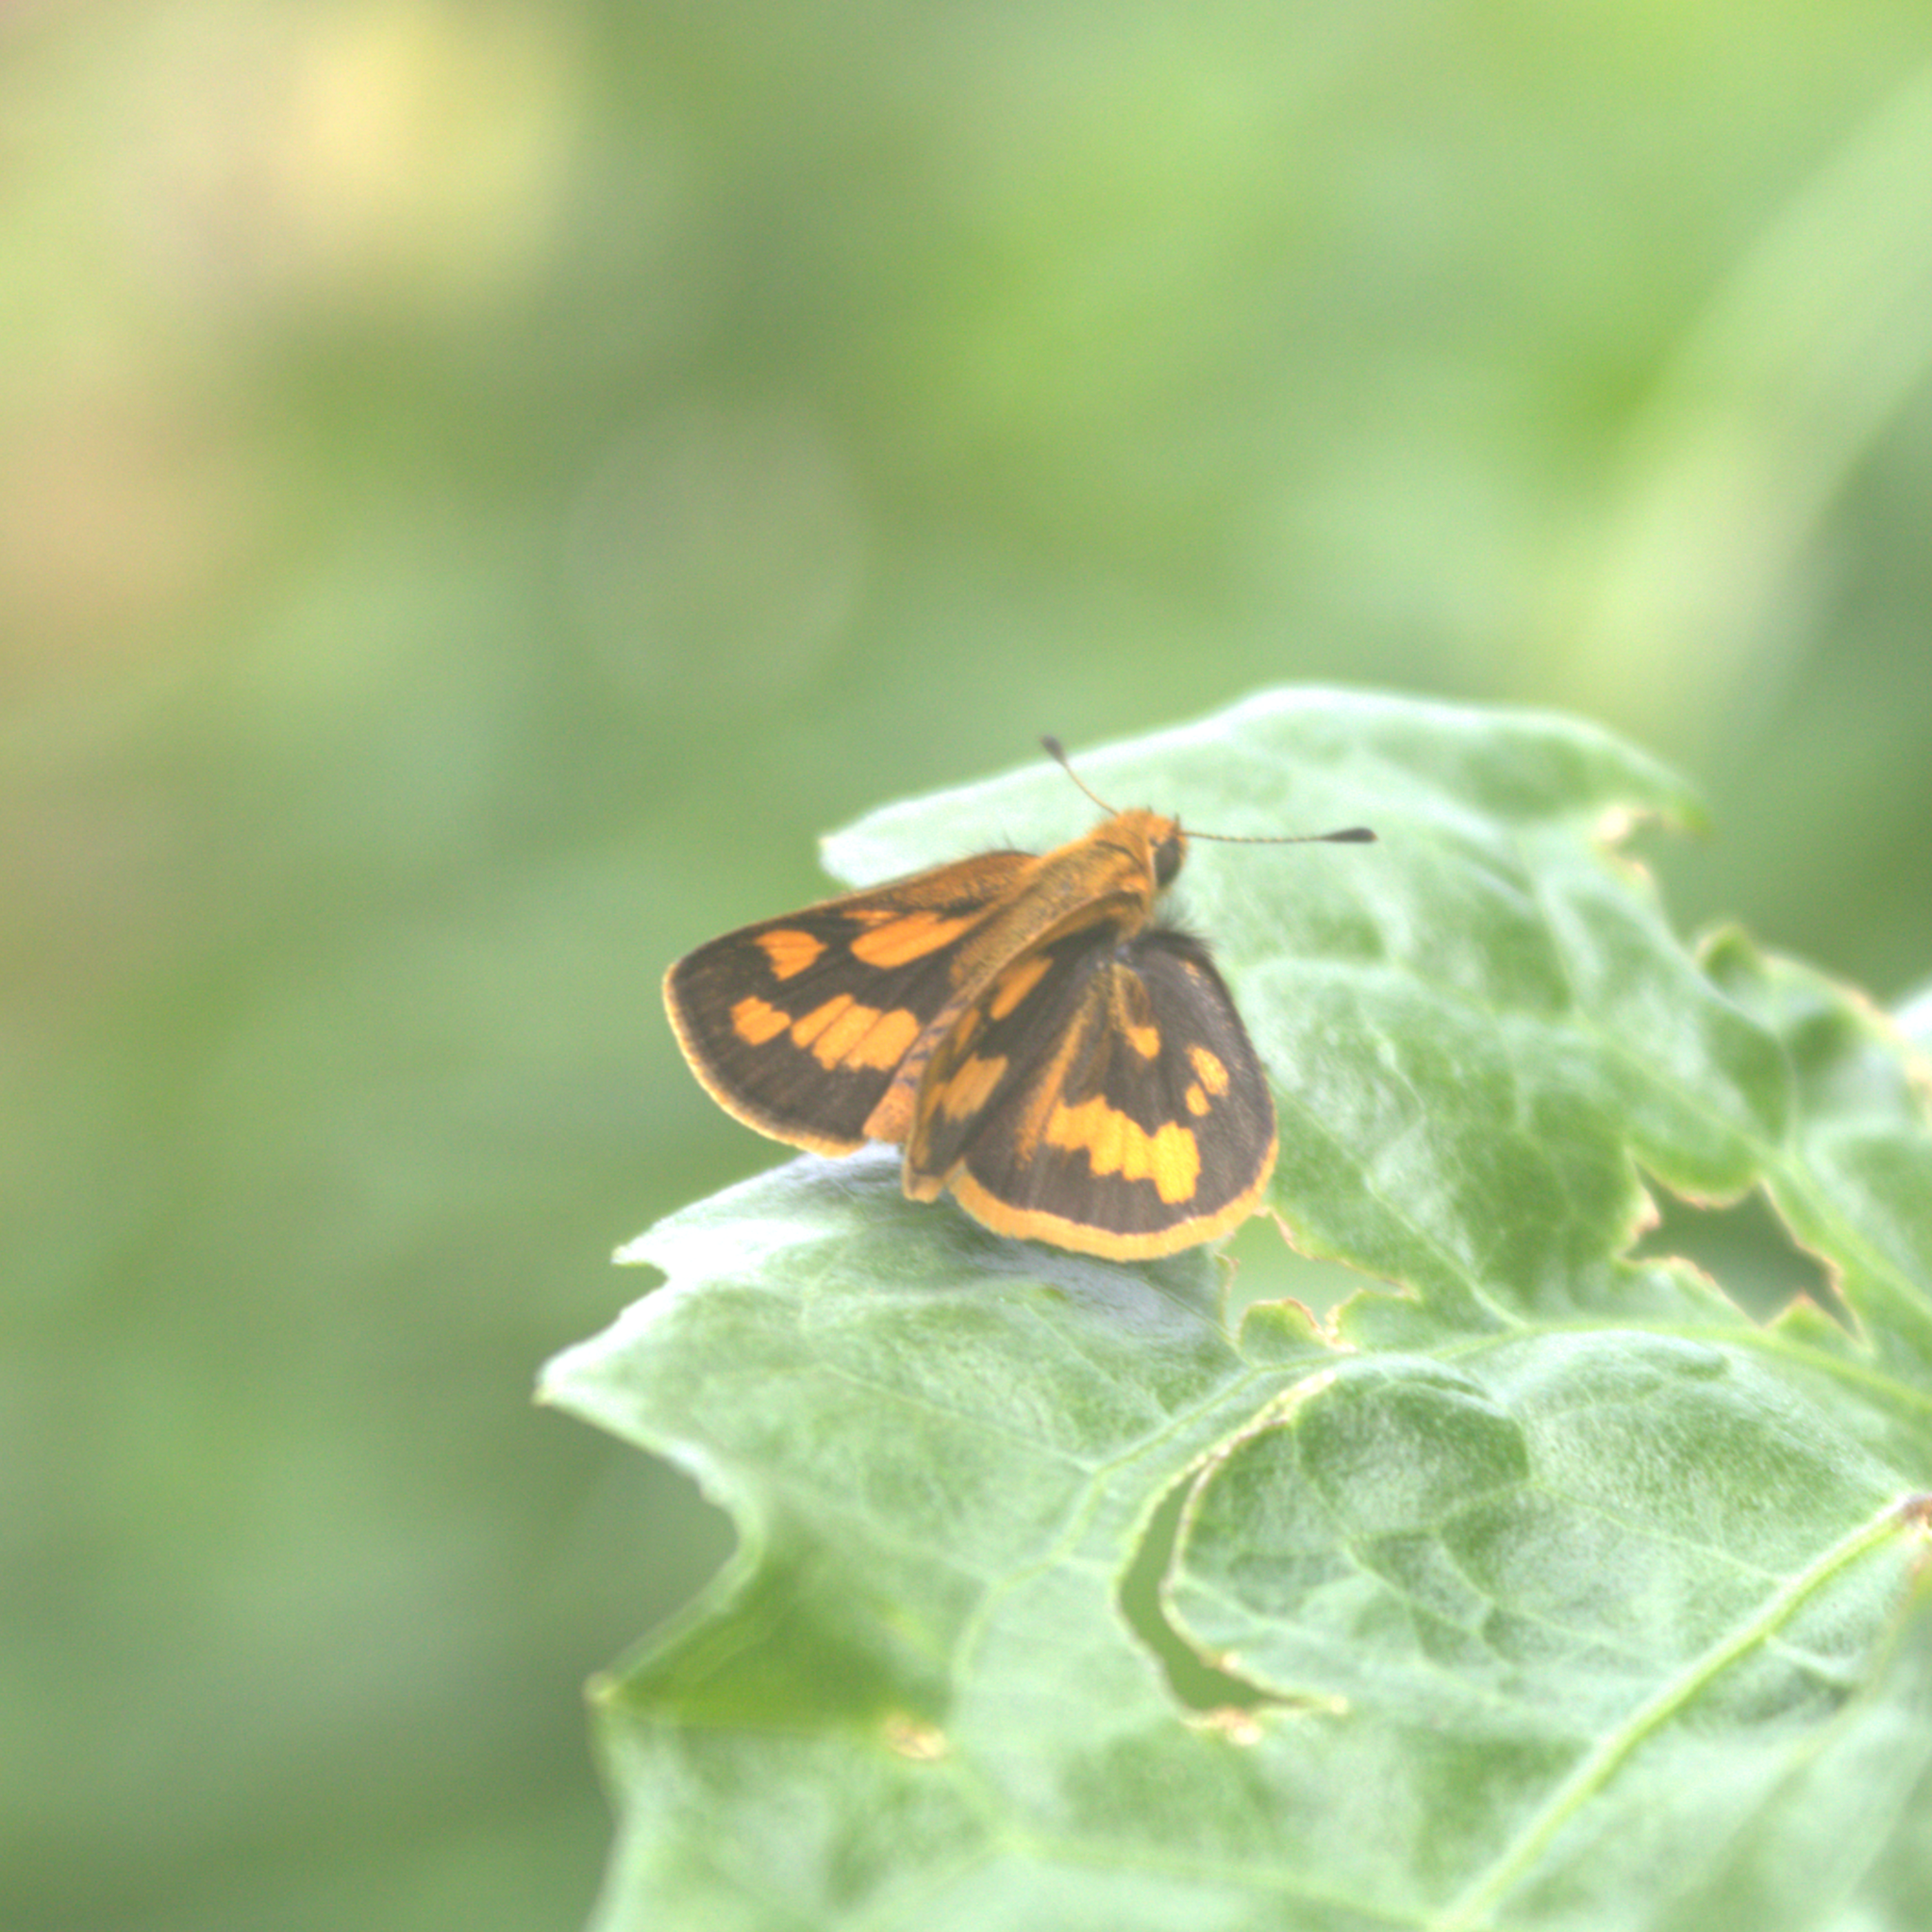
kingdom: Animalia
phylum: Arthropoda
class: Insecta
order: Lepidoptera
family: Hesperiidae
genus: Taractrocera
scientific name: Taractrocera
